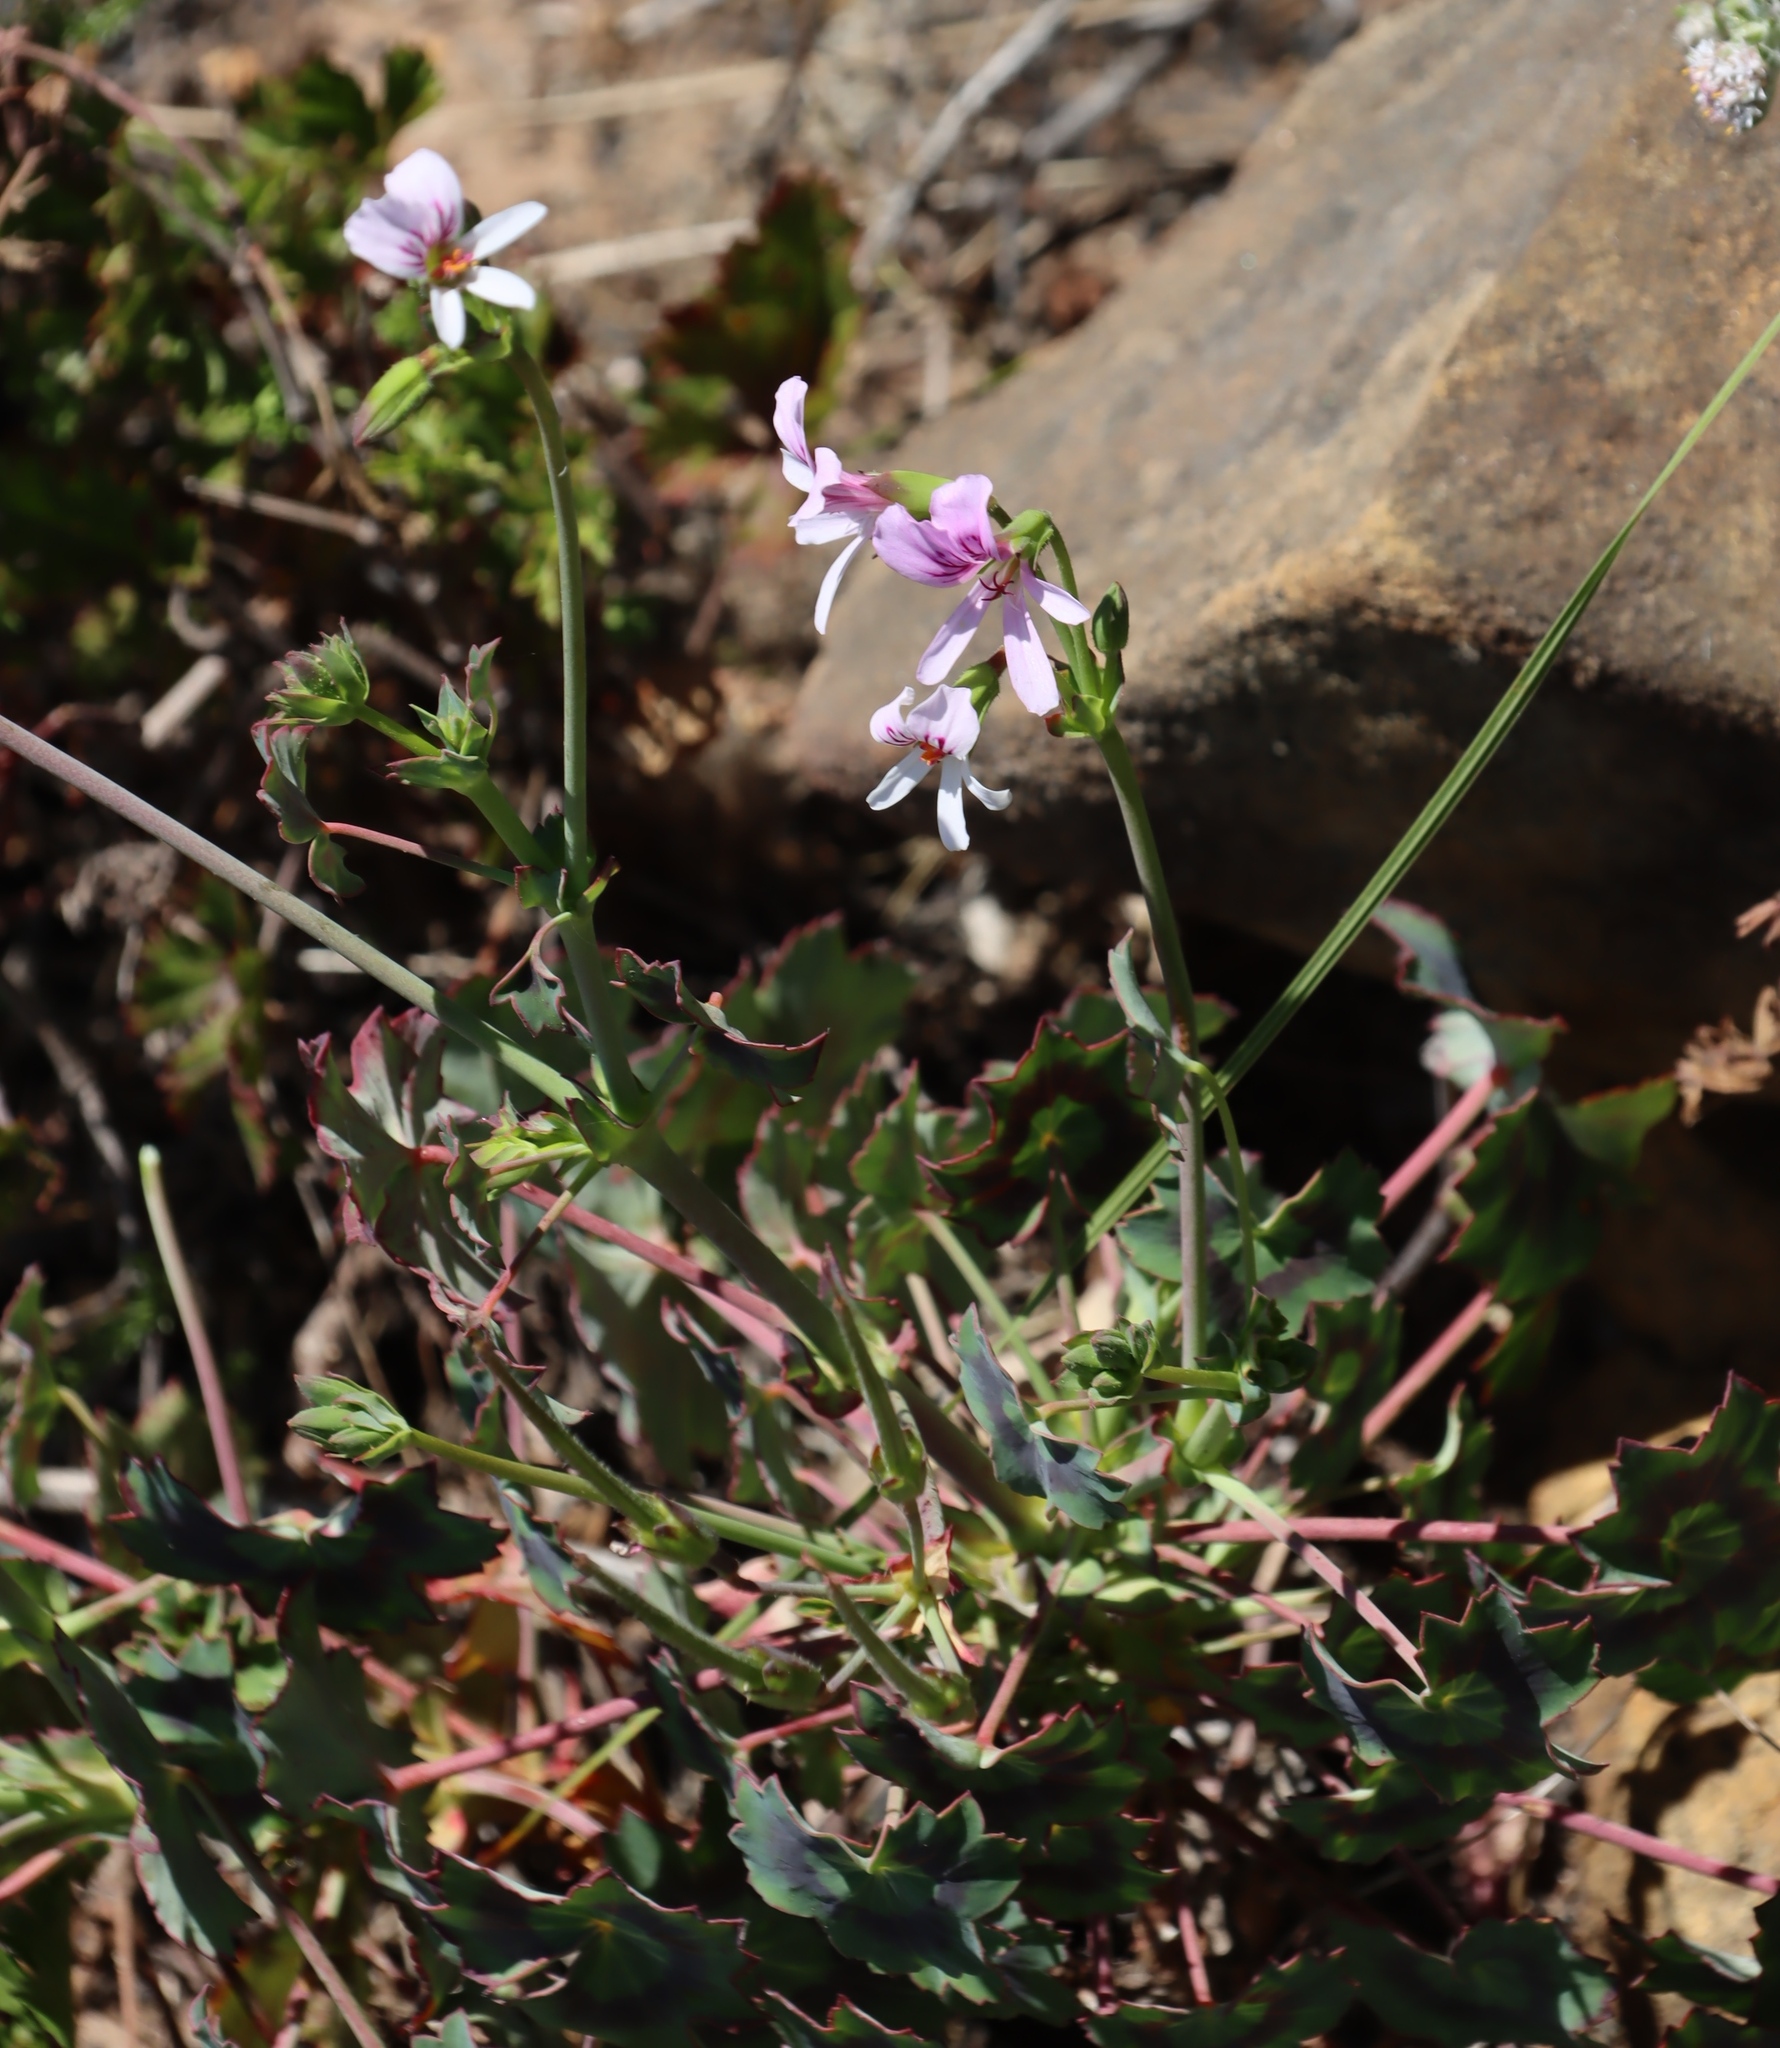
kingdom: Plantae
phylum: Tracheophyta
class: Magnoliopsida
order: Geraniales
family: Geraniaceae
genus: Pelargonium
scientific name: Pelargonium tabulare
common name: Table mountain pelargonium
